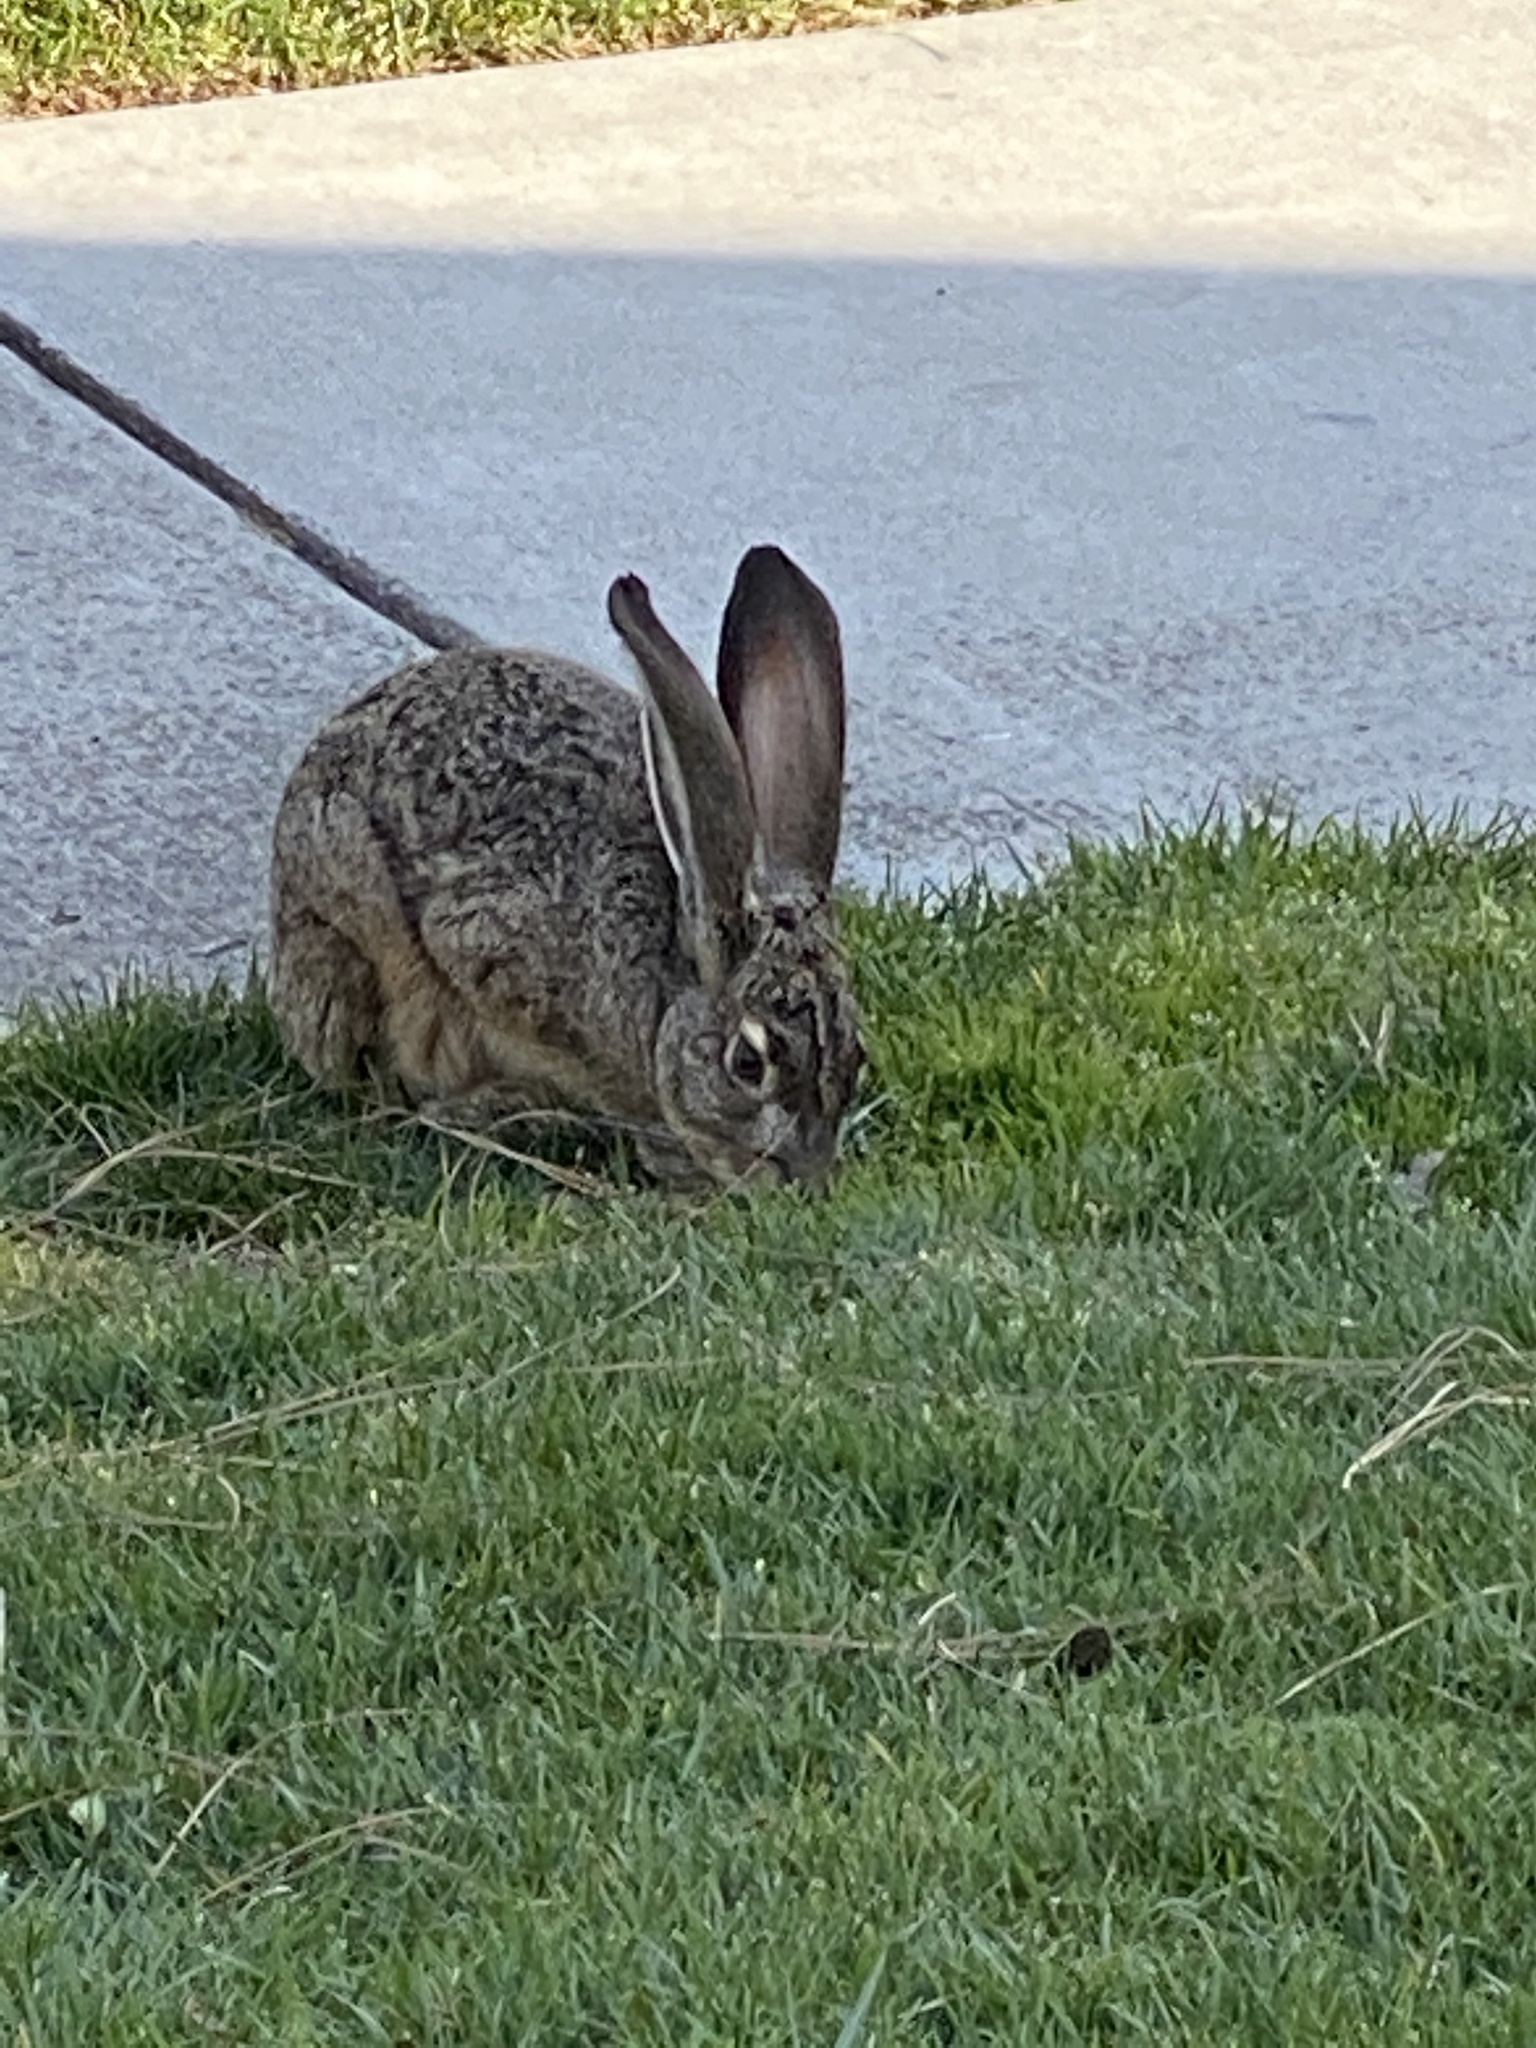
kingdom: Animalia
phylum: Chordata
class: Mammalia
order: Lagomorpha
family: Leporidae
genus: Lepus
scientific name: Lepus californicus
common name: Black-tailed jackrabbit
